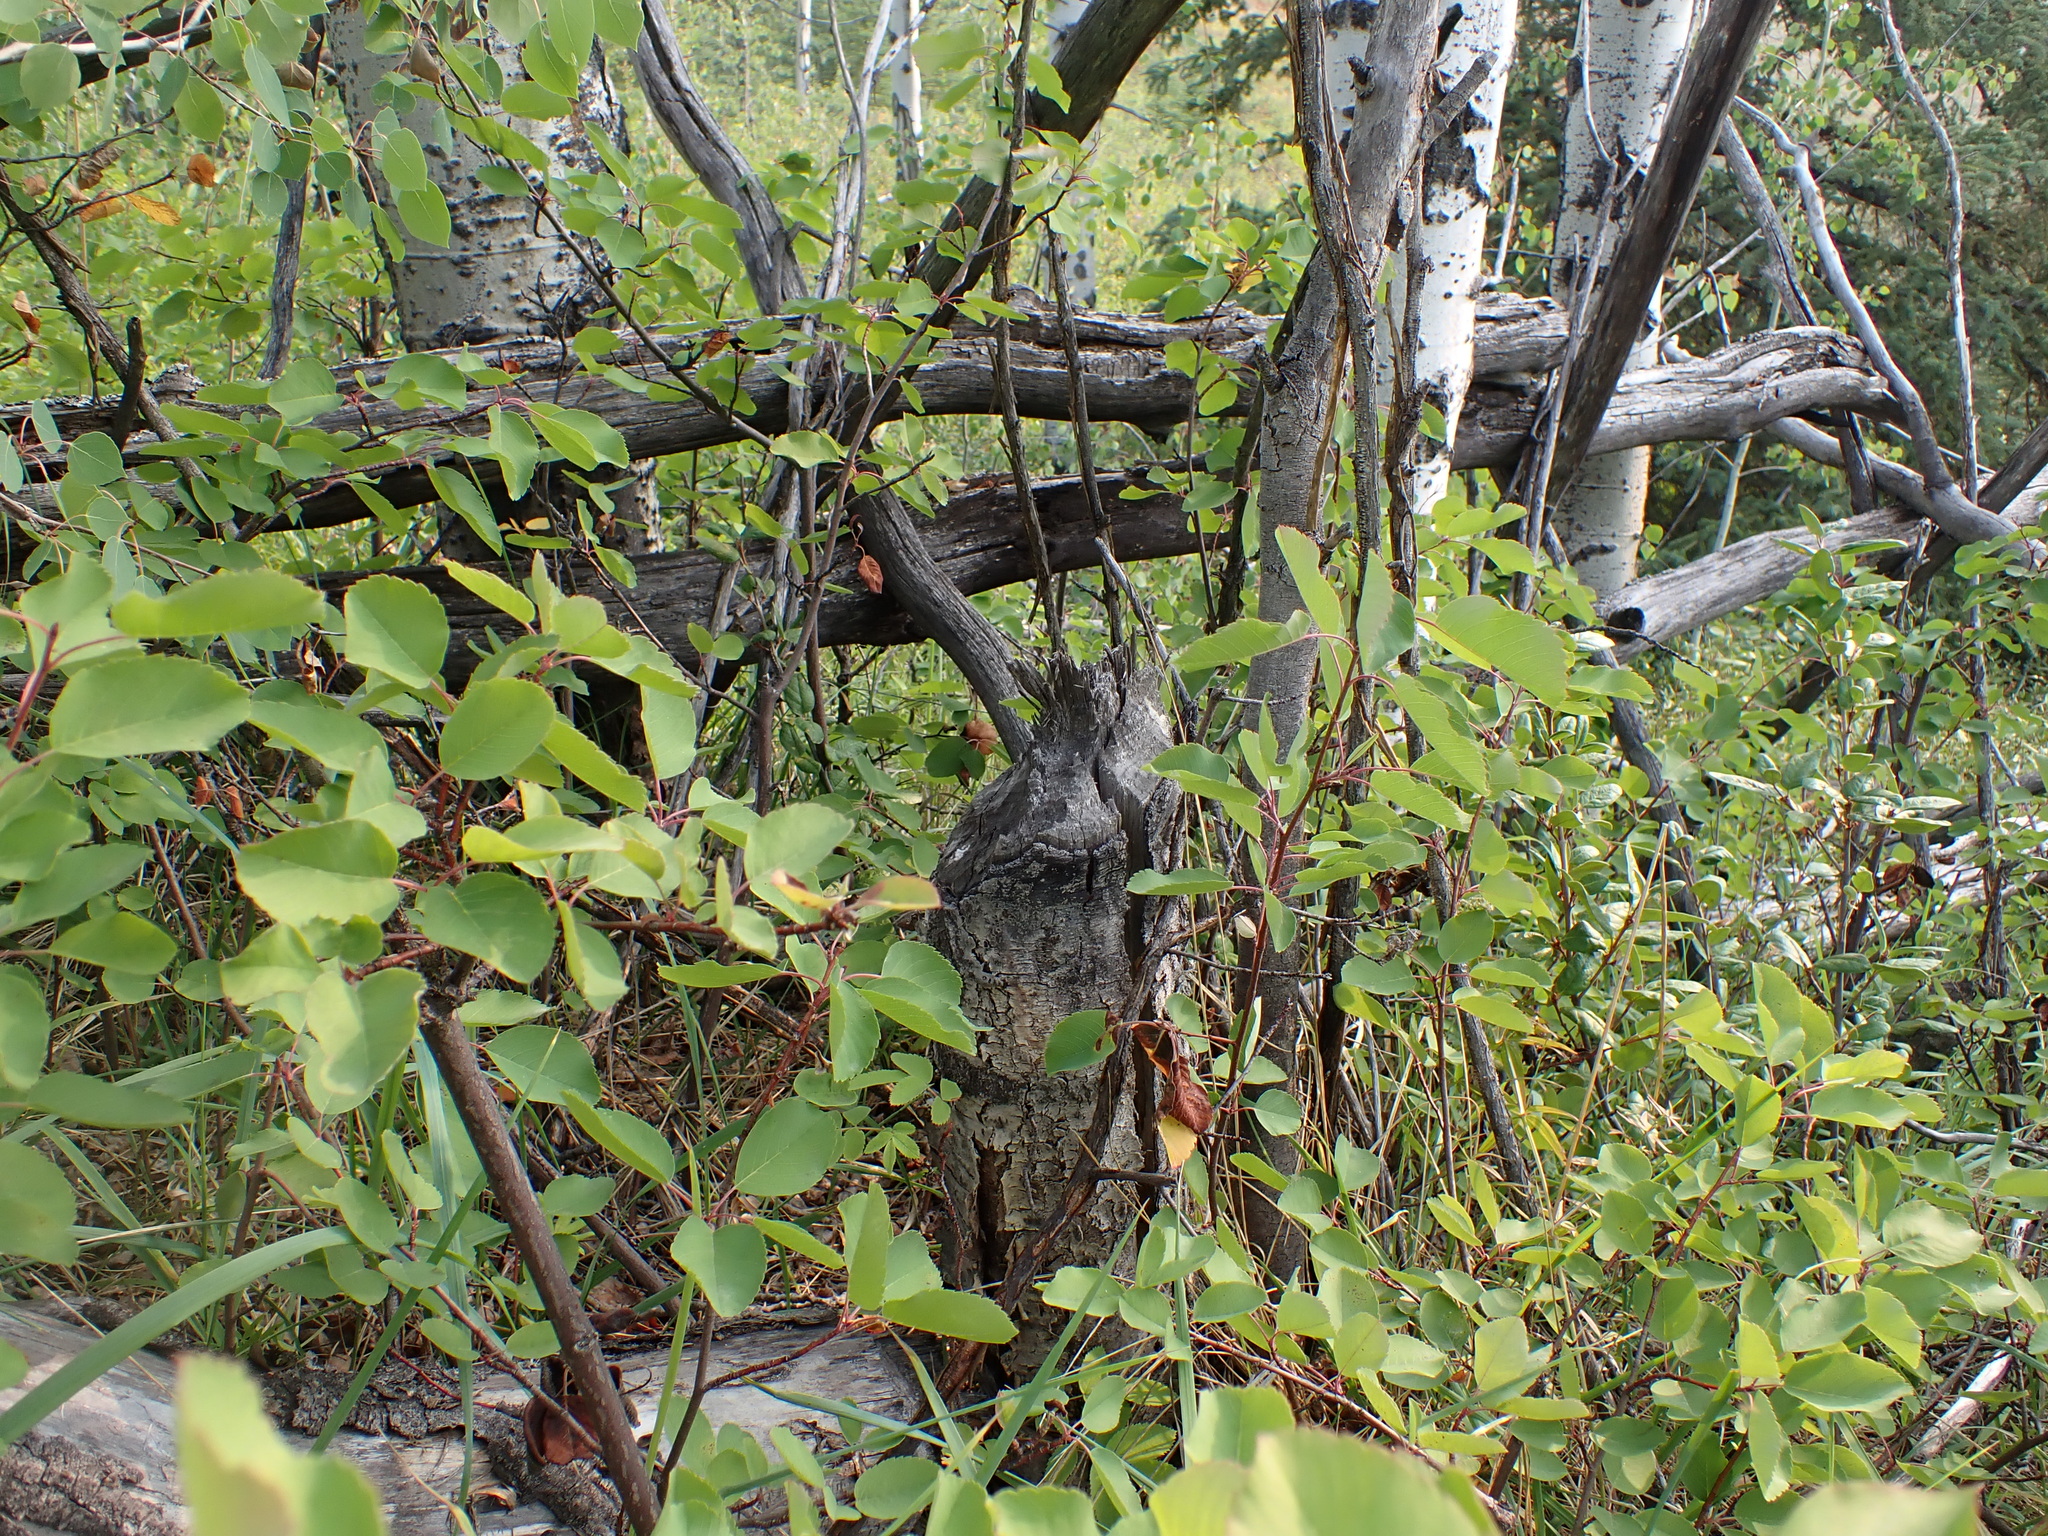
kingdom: Animalia
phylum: Chordata
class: Mammalia
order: Rodentia
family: Castoridae
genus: Castor
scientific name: Castor canadensis
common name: American beaver
